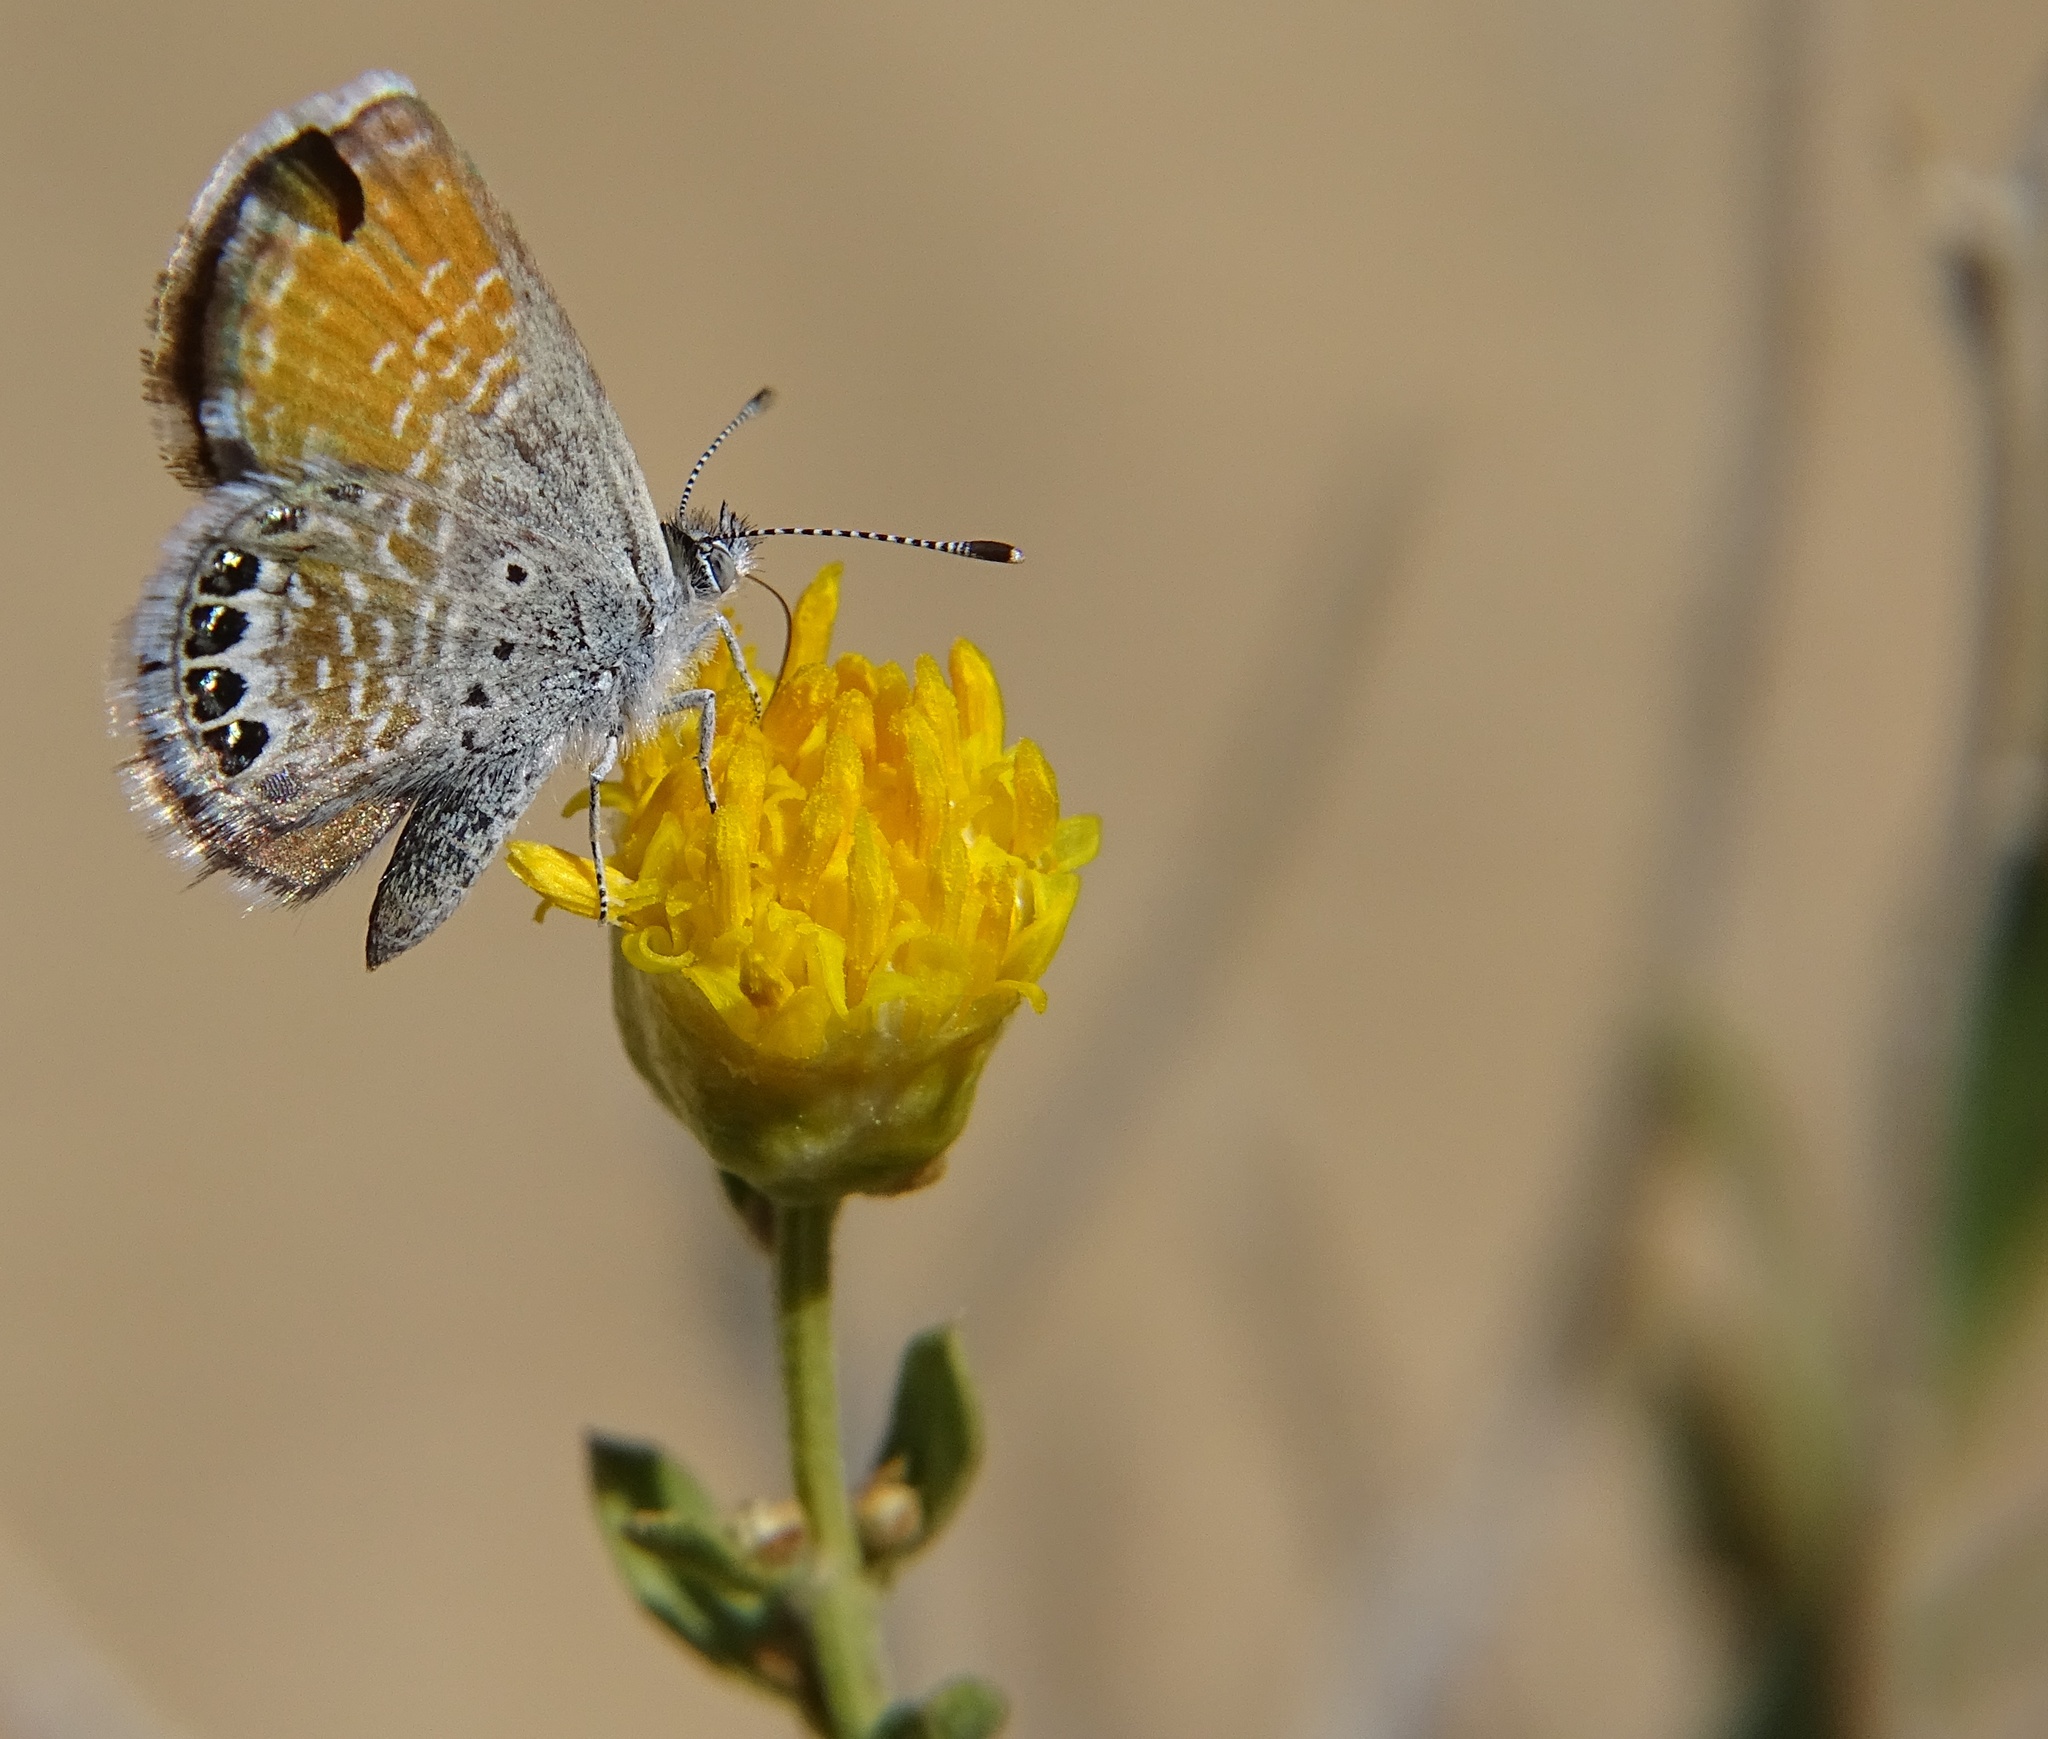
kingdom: Animalia
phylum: Arthropoda
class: Insecta
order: Lepidoptera
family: Lycaenidae
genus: Brephidium
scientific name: Brephidium exilis
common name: Pygmy blue
